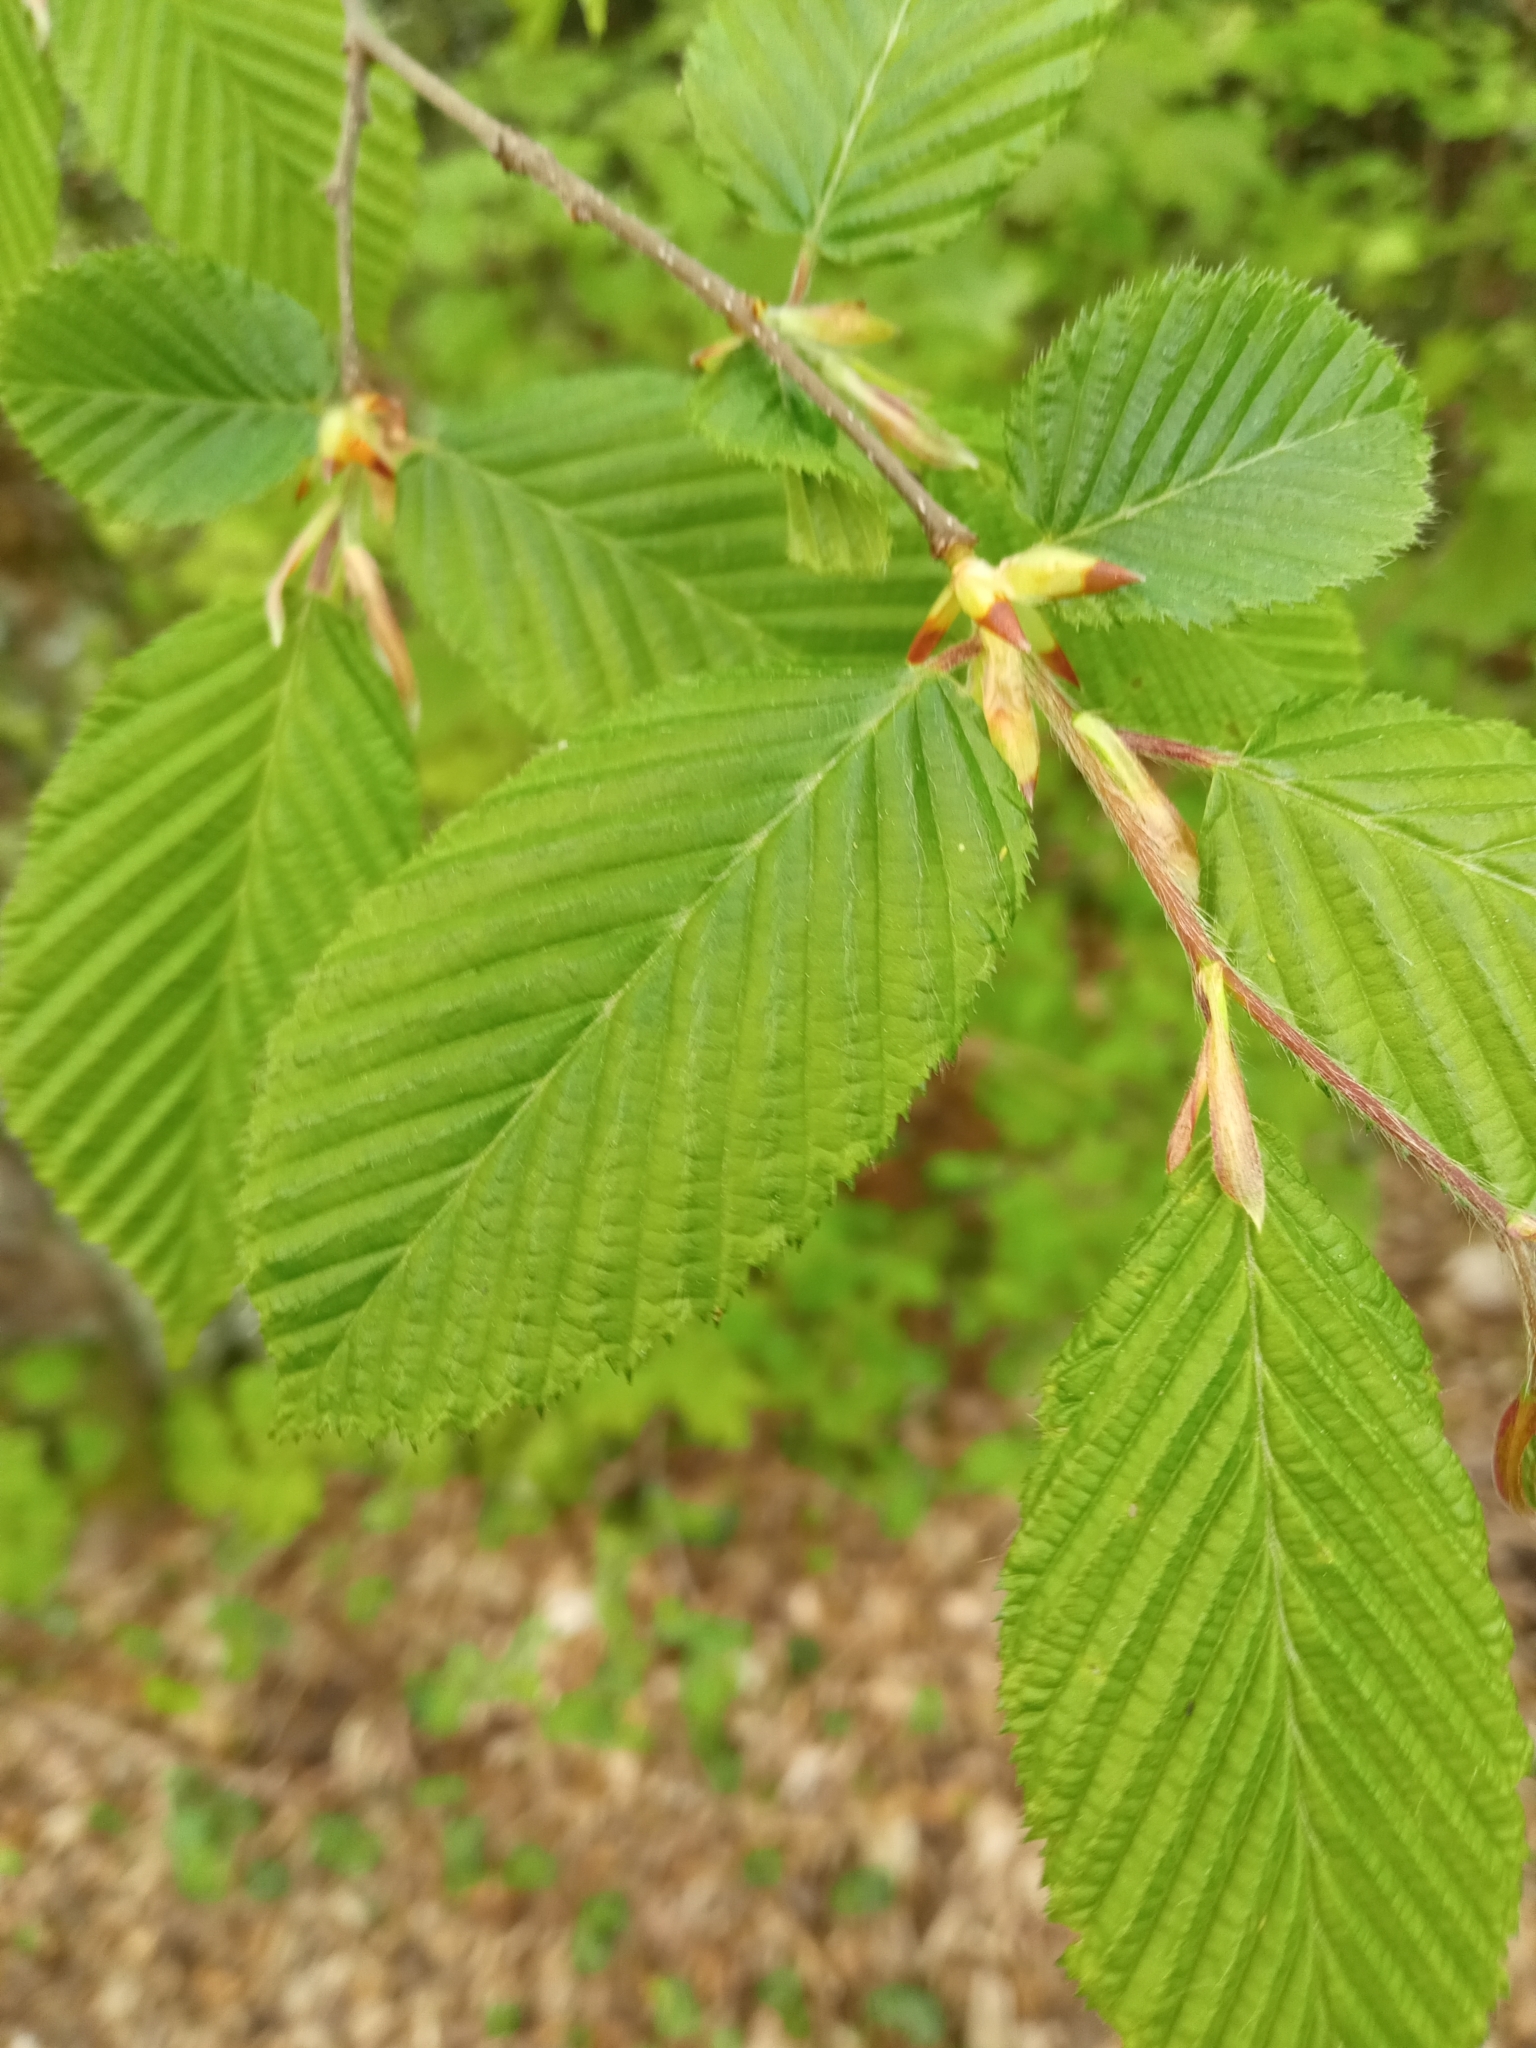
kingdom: Plantae
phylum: Tracheophyta
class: Magnoliopsida
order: Fagales
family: Betulaceae
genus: Carpinus
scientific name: Carpinus betulus
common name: Hornbeam
